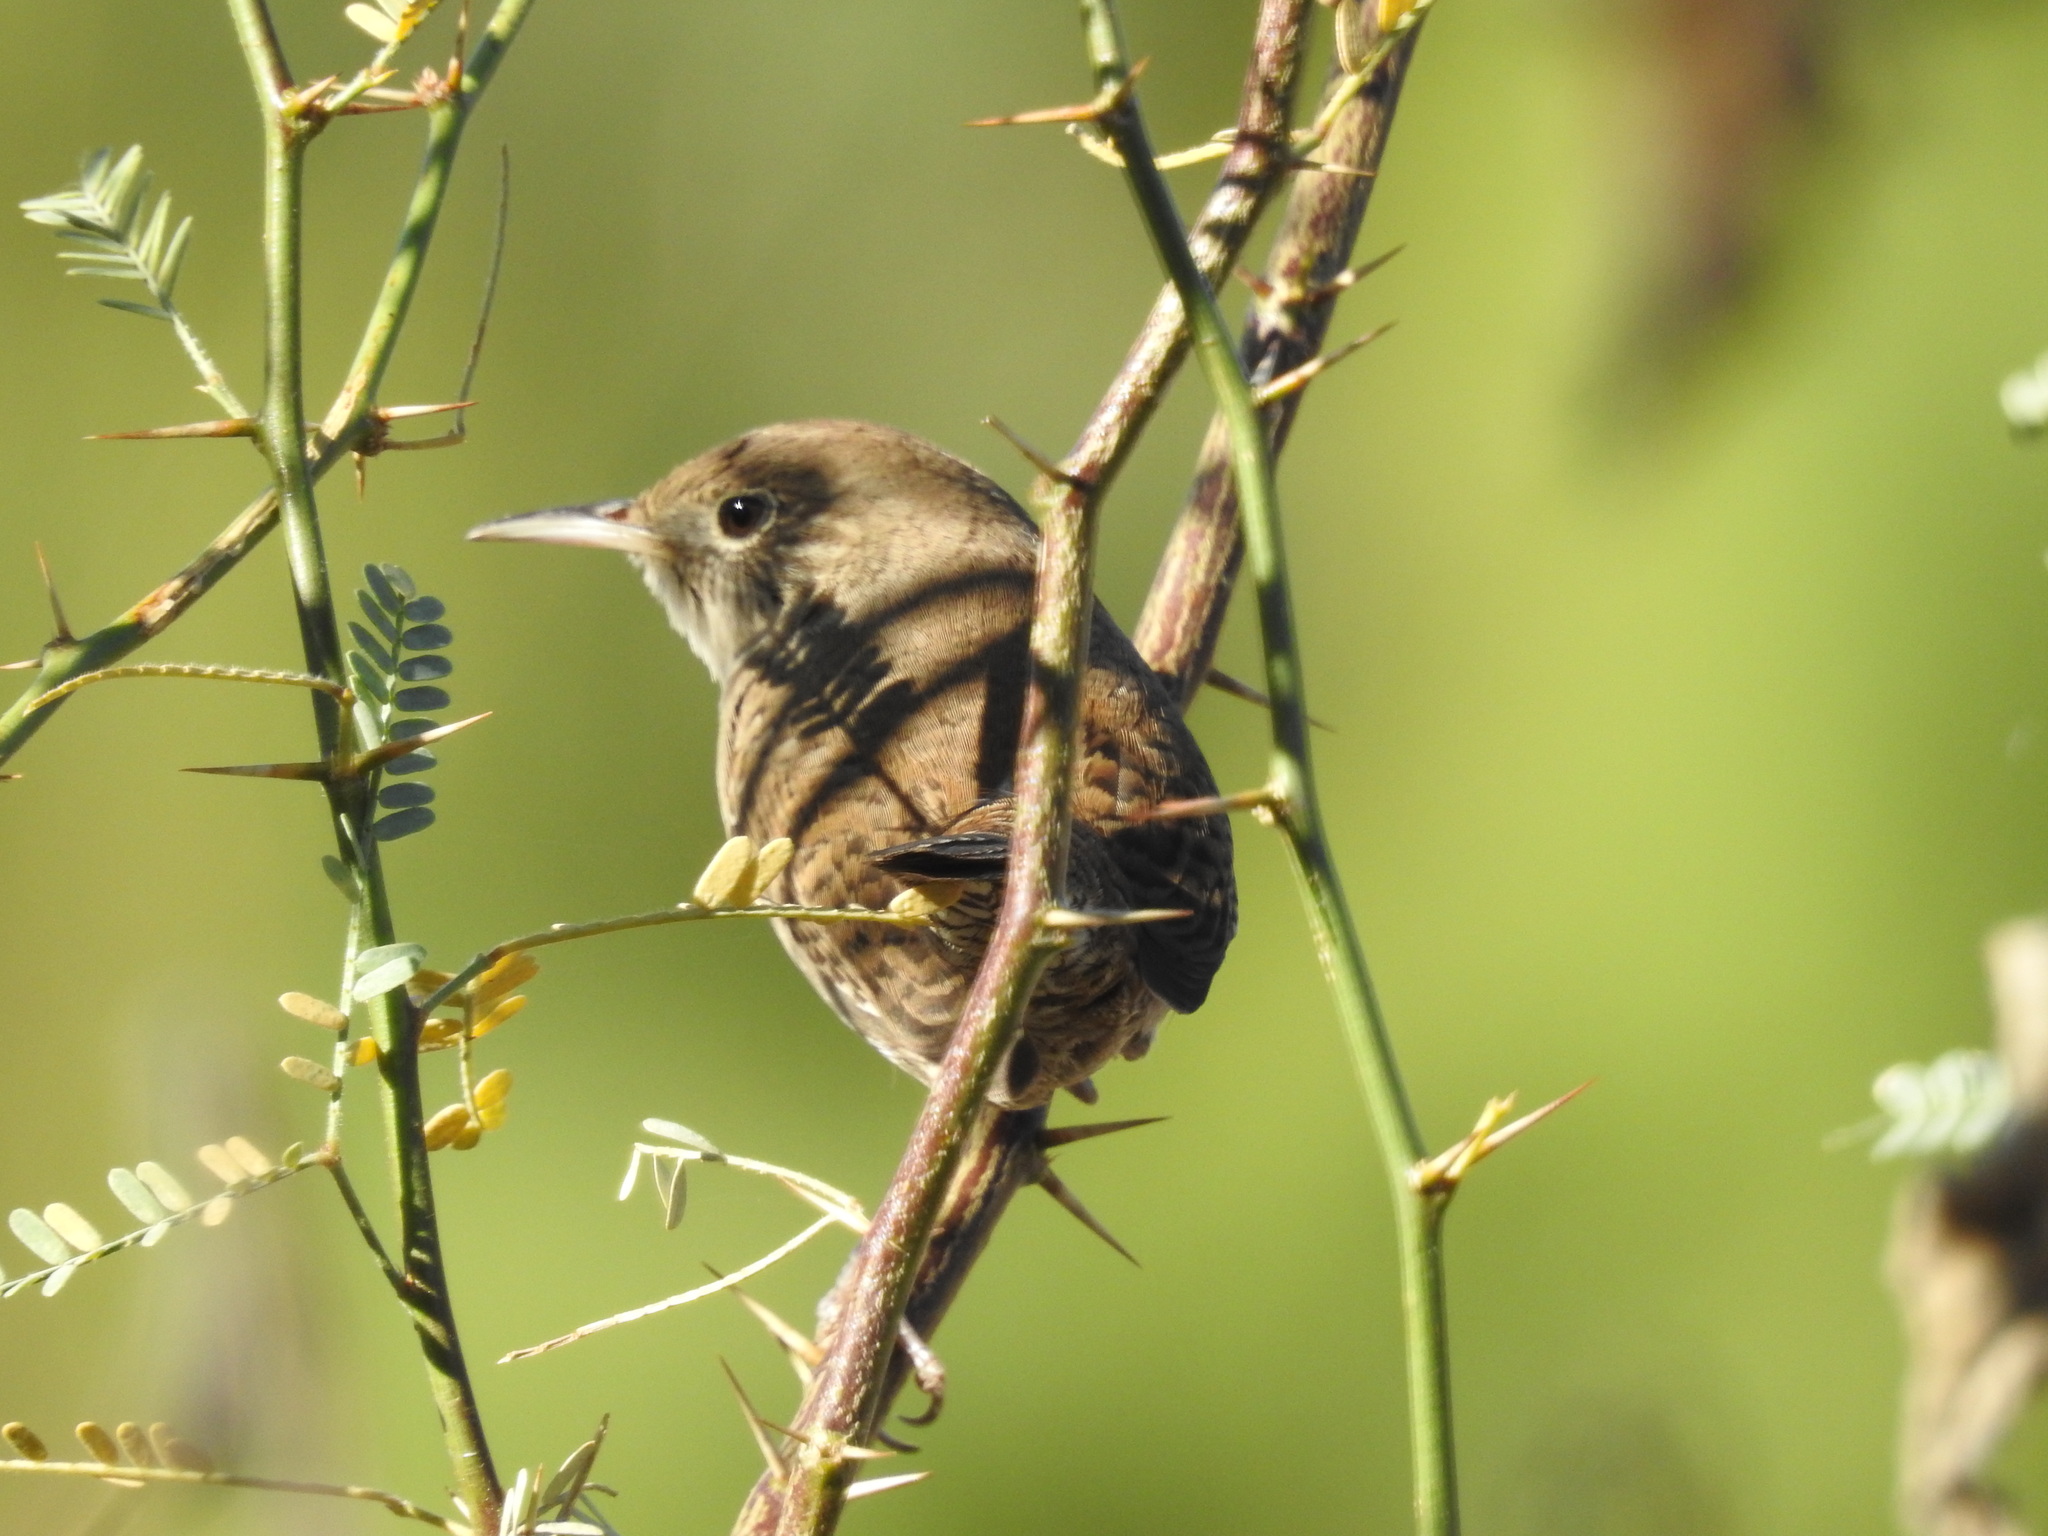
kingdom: Animalia
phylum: Chordata
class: Aves
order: Passeriformes
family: Troglodytidae
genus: Troglodytes
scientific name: Troglodytes aedon
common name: House wren
